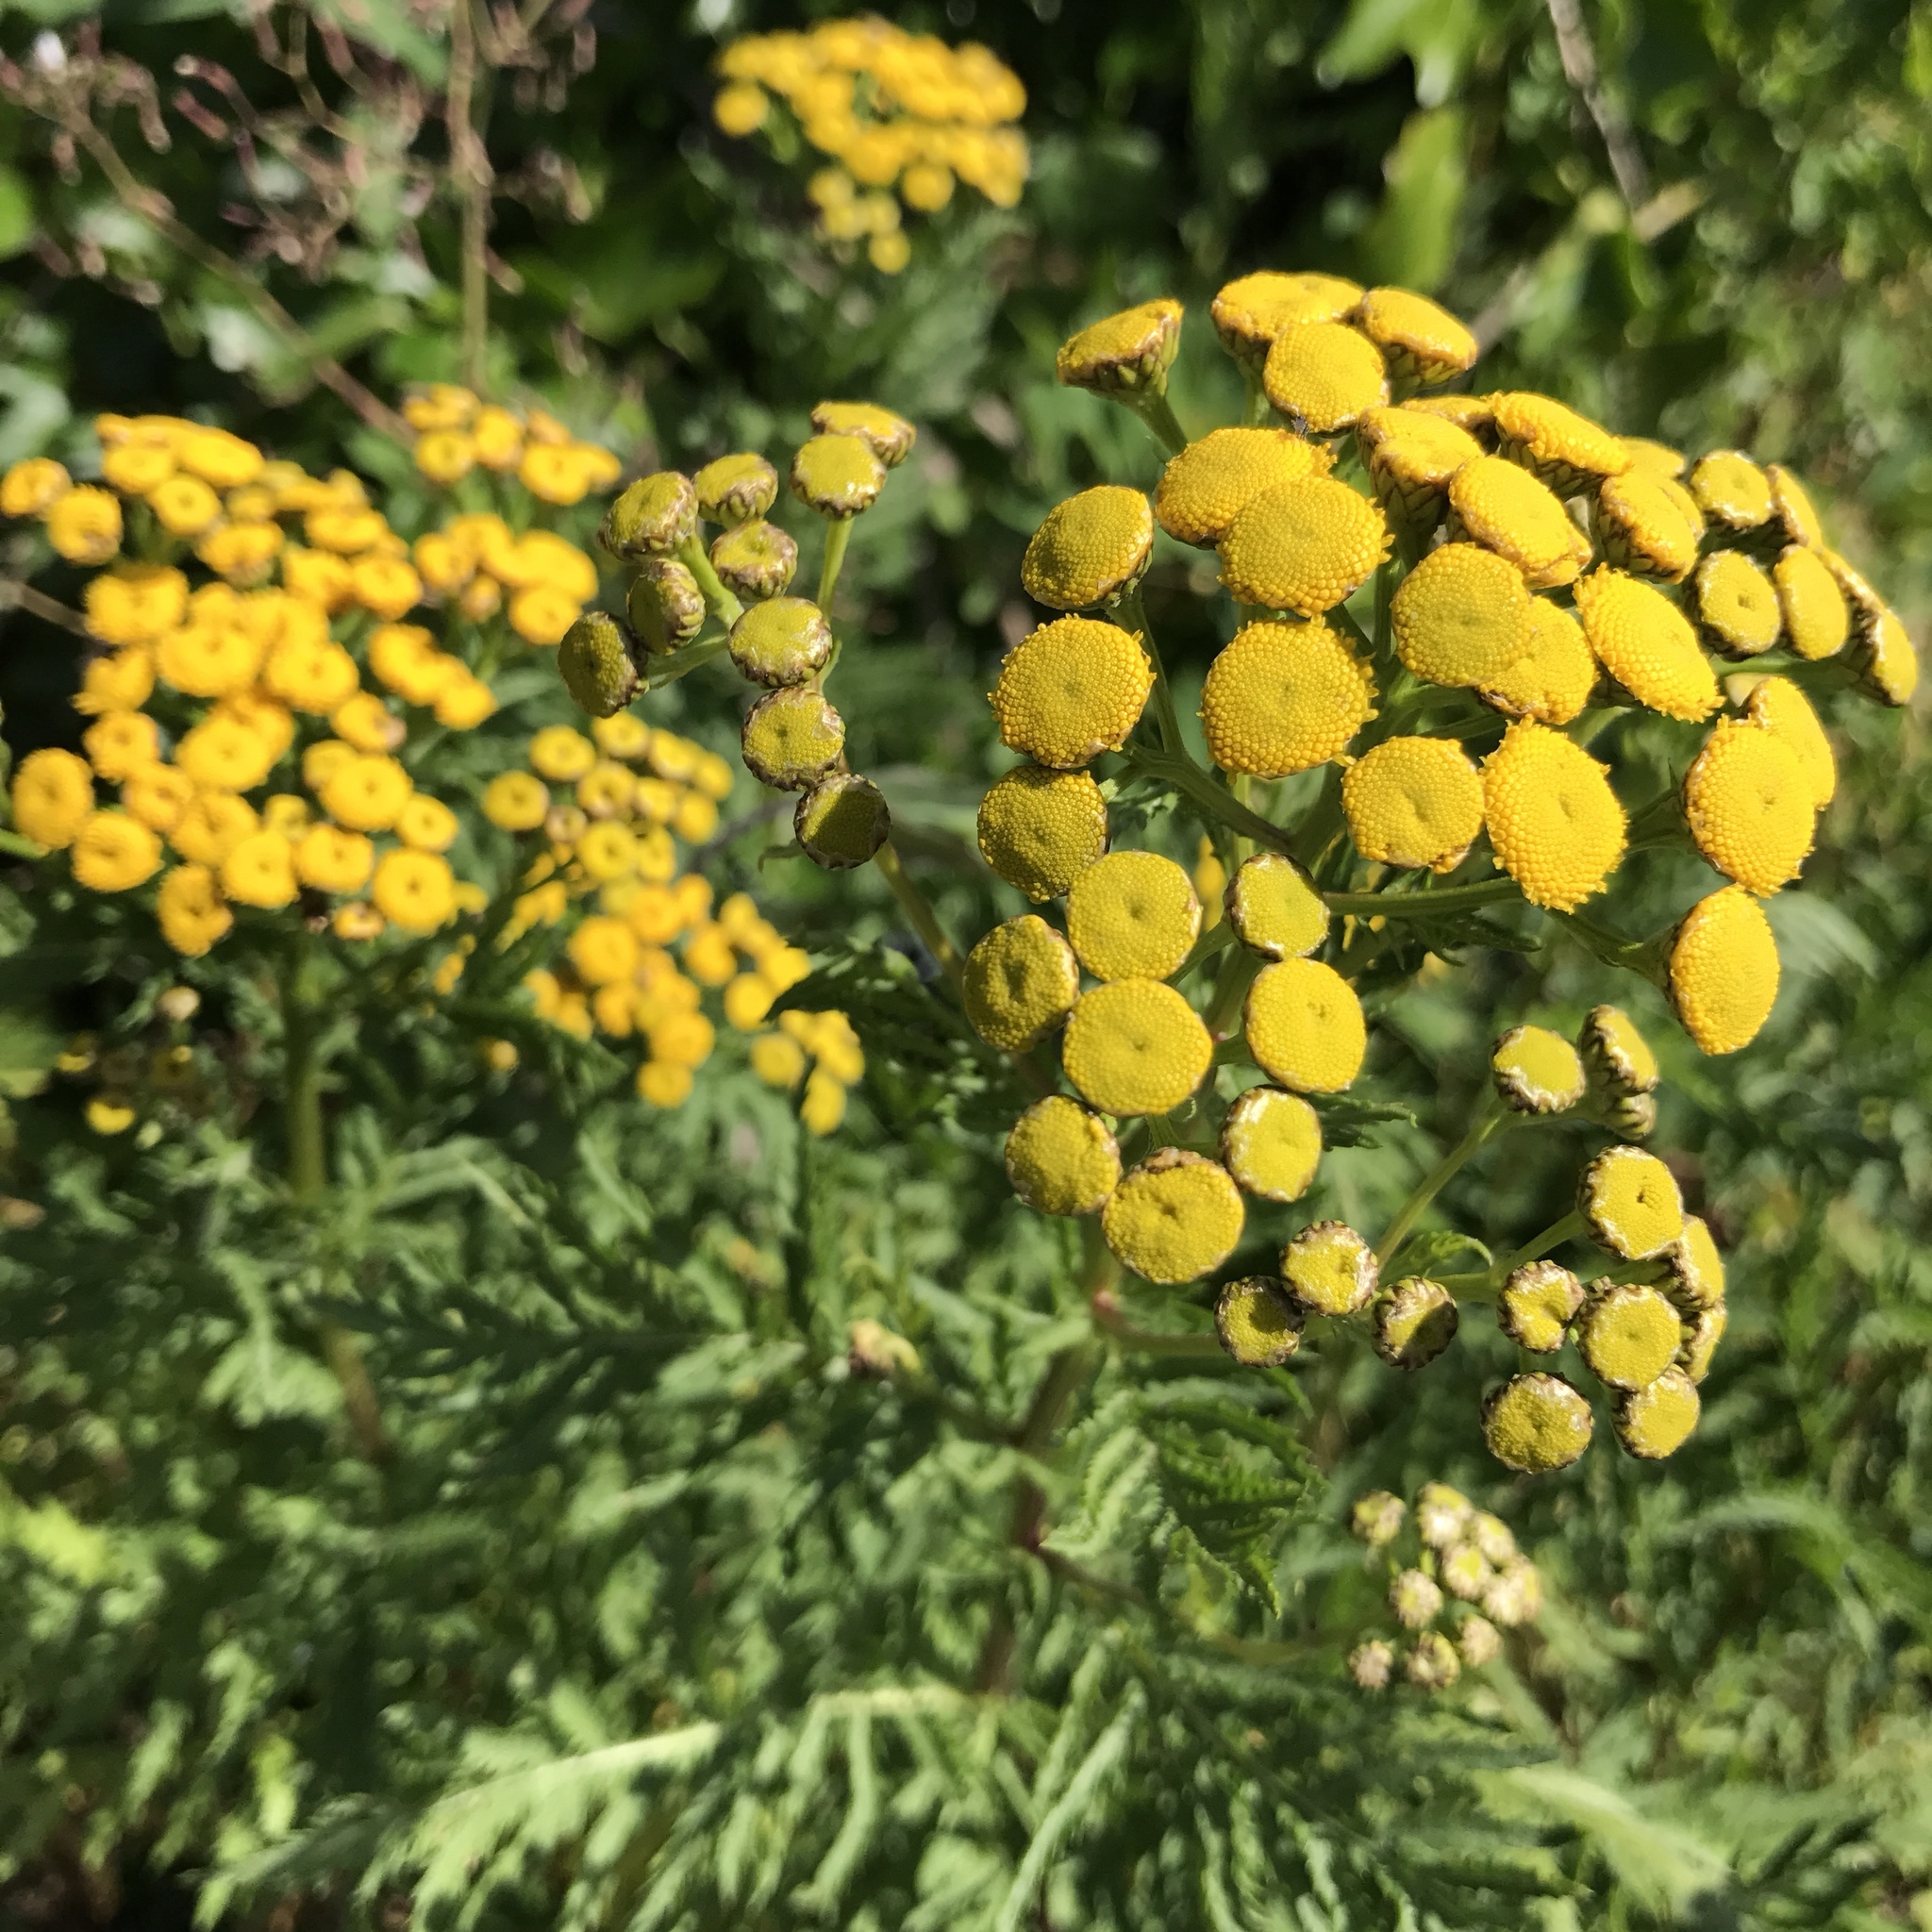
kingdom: Plantae
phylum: Tracheophyta
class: Magnoliopsida
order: Asterales
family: Asteraceae
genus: Tanacetum
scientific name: Tanacetum vulgare
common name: Common tansy
